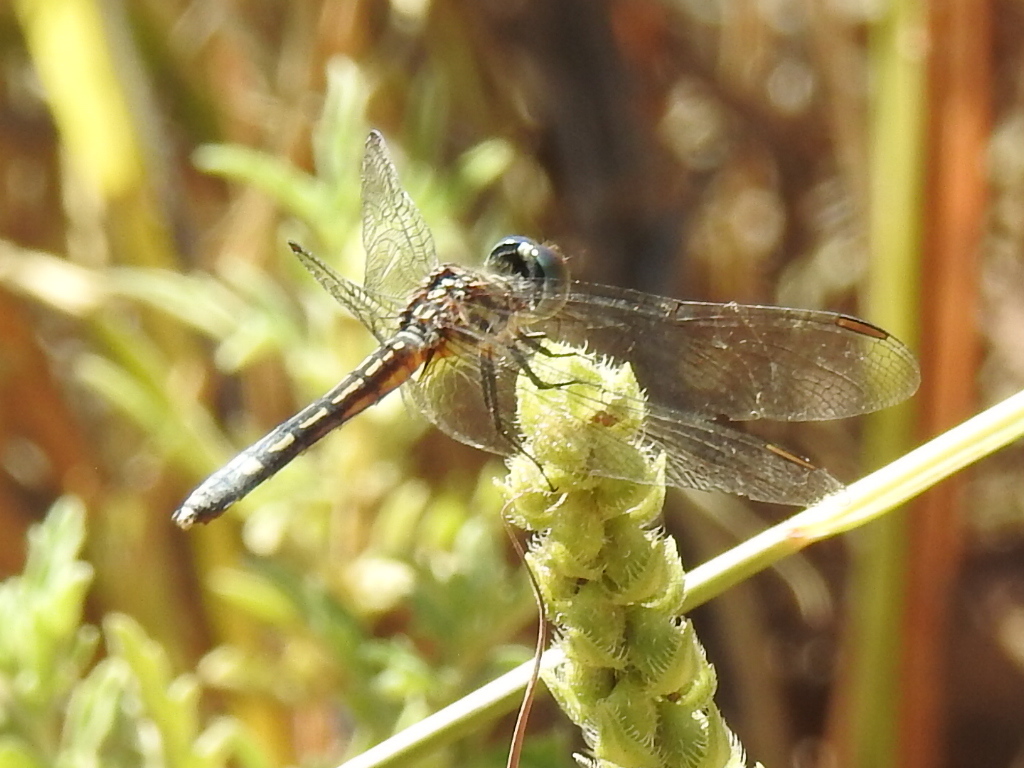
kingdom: Animalia
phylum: Arthropoda
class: Insecta
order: Odonata
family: Libellulidae
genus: Pachydiplax
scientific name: Pachydiplax longipennis
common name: Blue dasher
